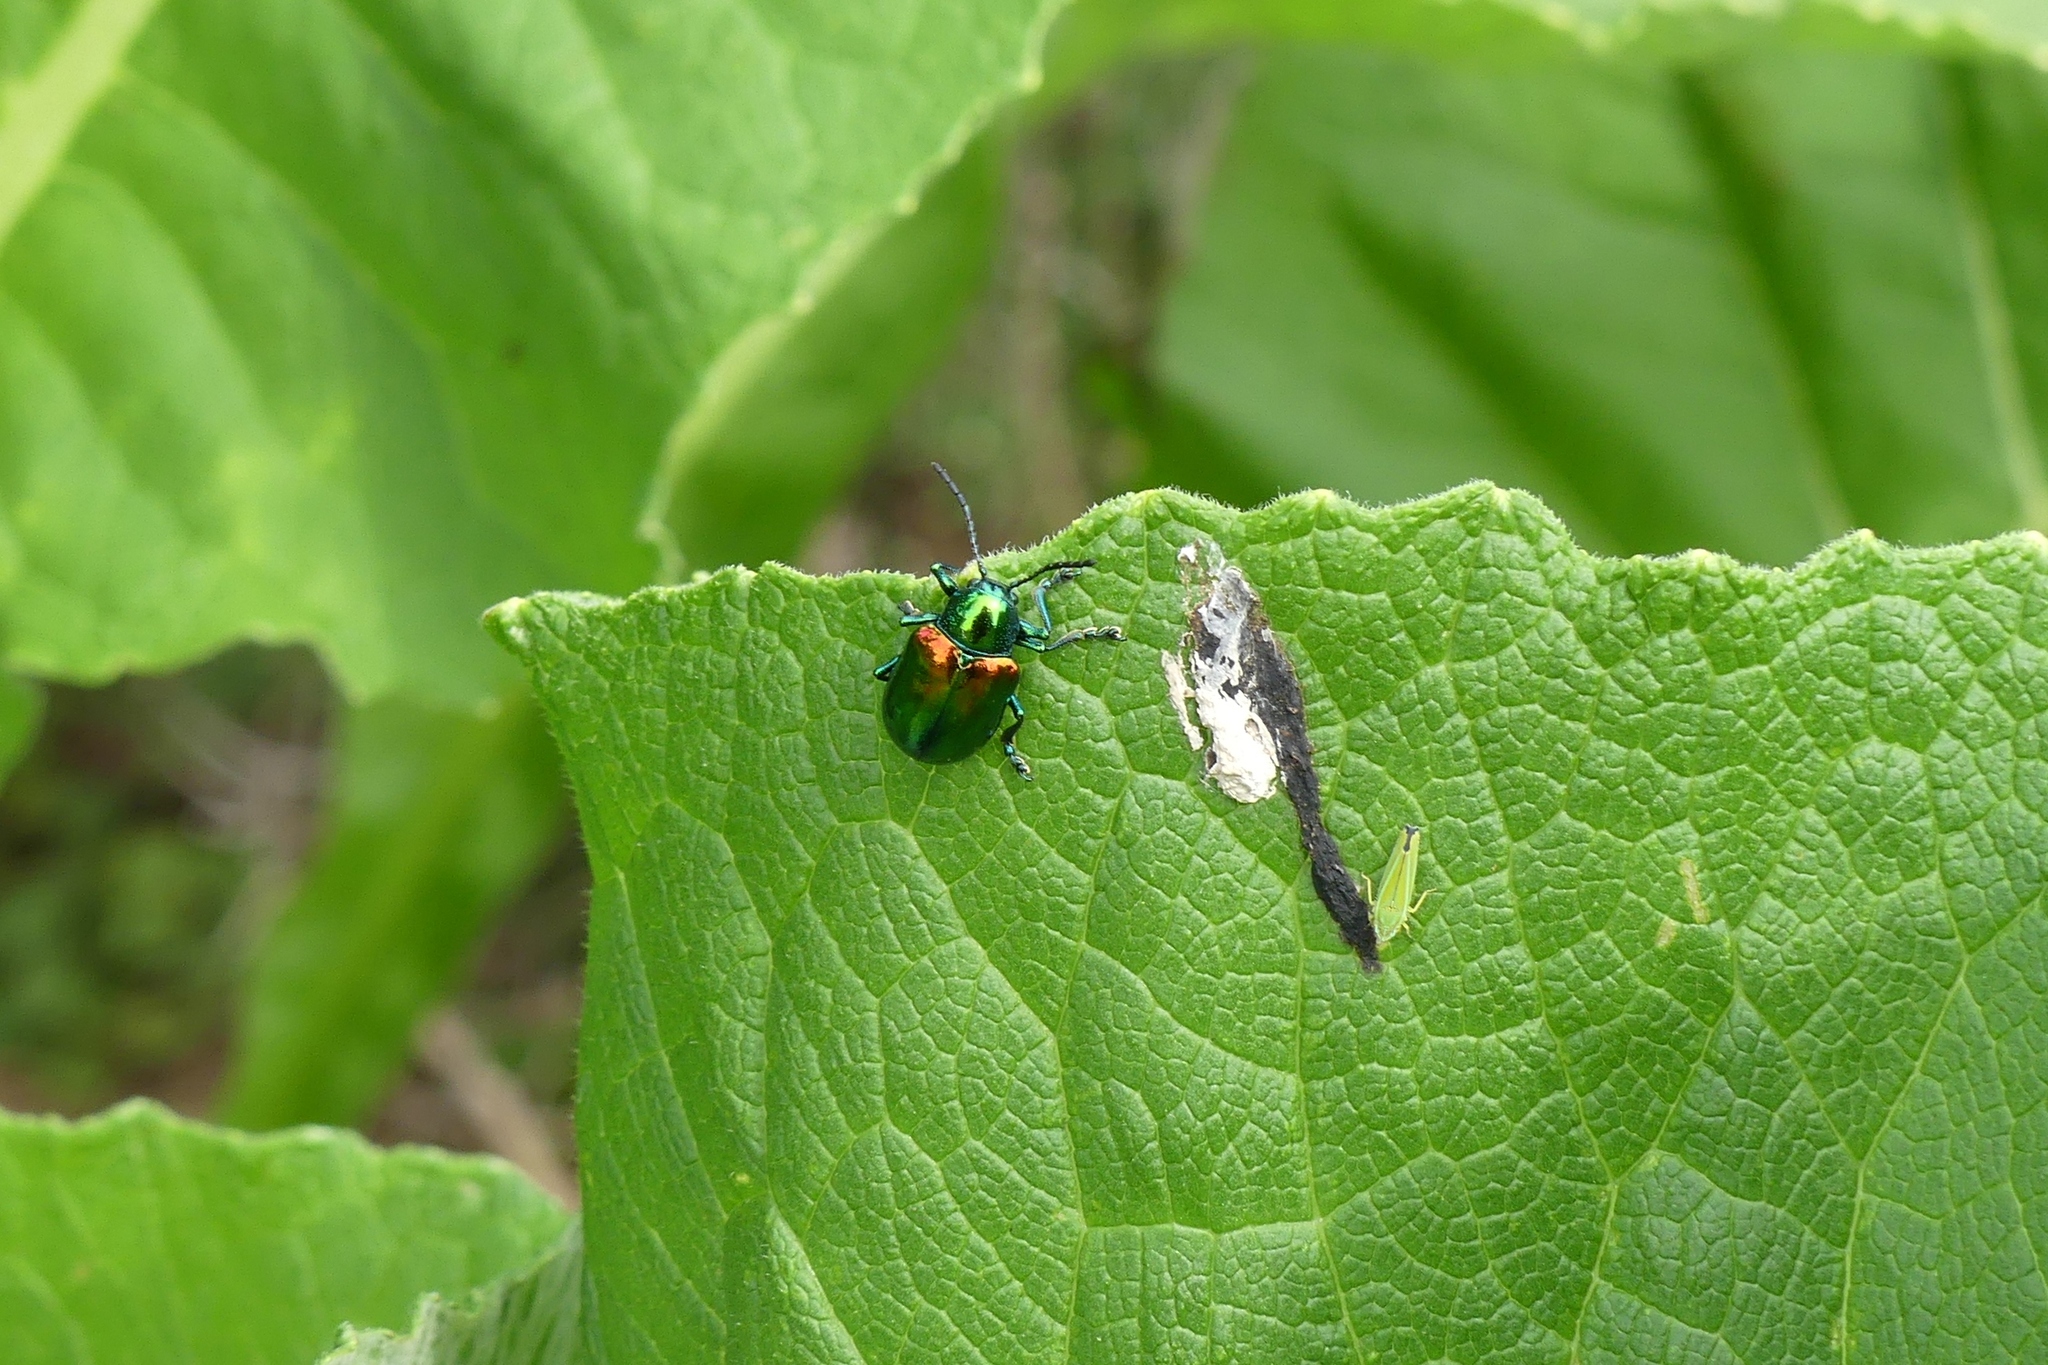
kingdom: Animalia
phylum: Arthropoda
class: Insecta
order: Coleoptera
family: Chrysomelidae
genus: Chrysochus
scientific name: Chrysochus auratus
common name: Dogbane leaf beetle
